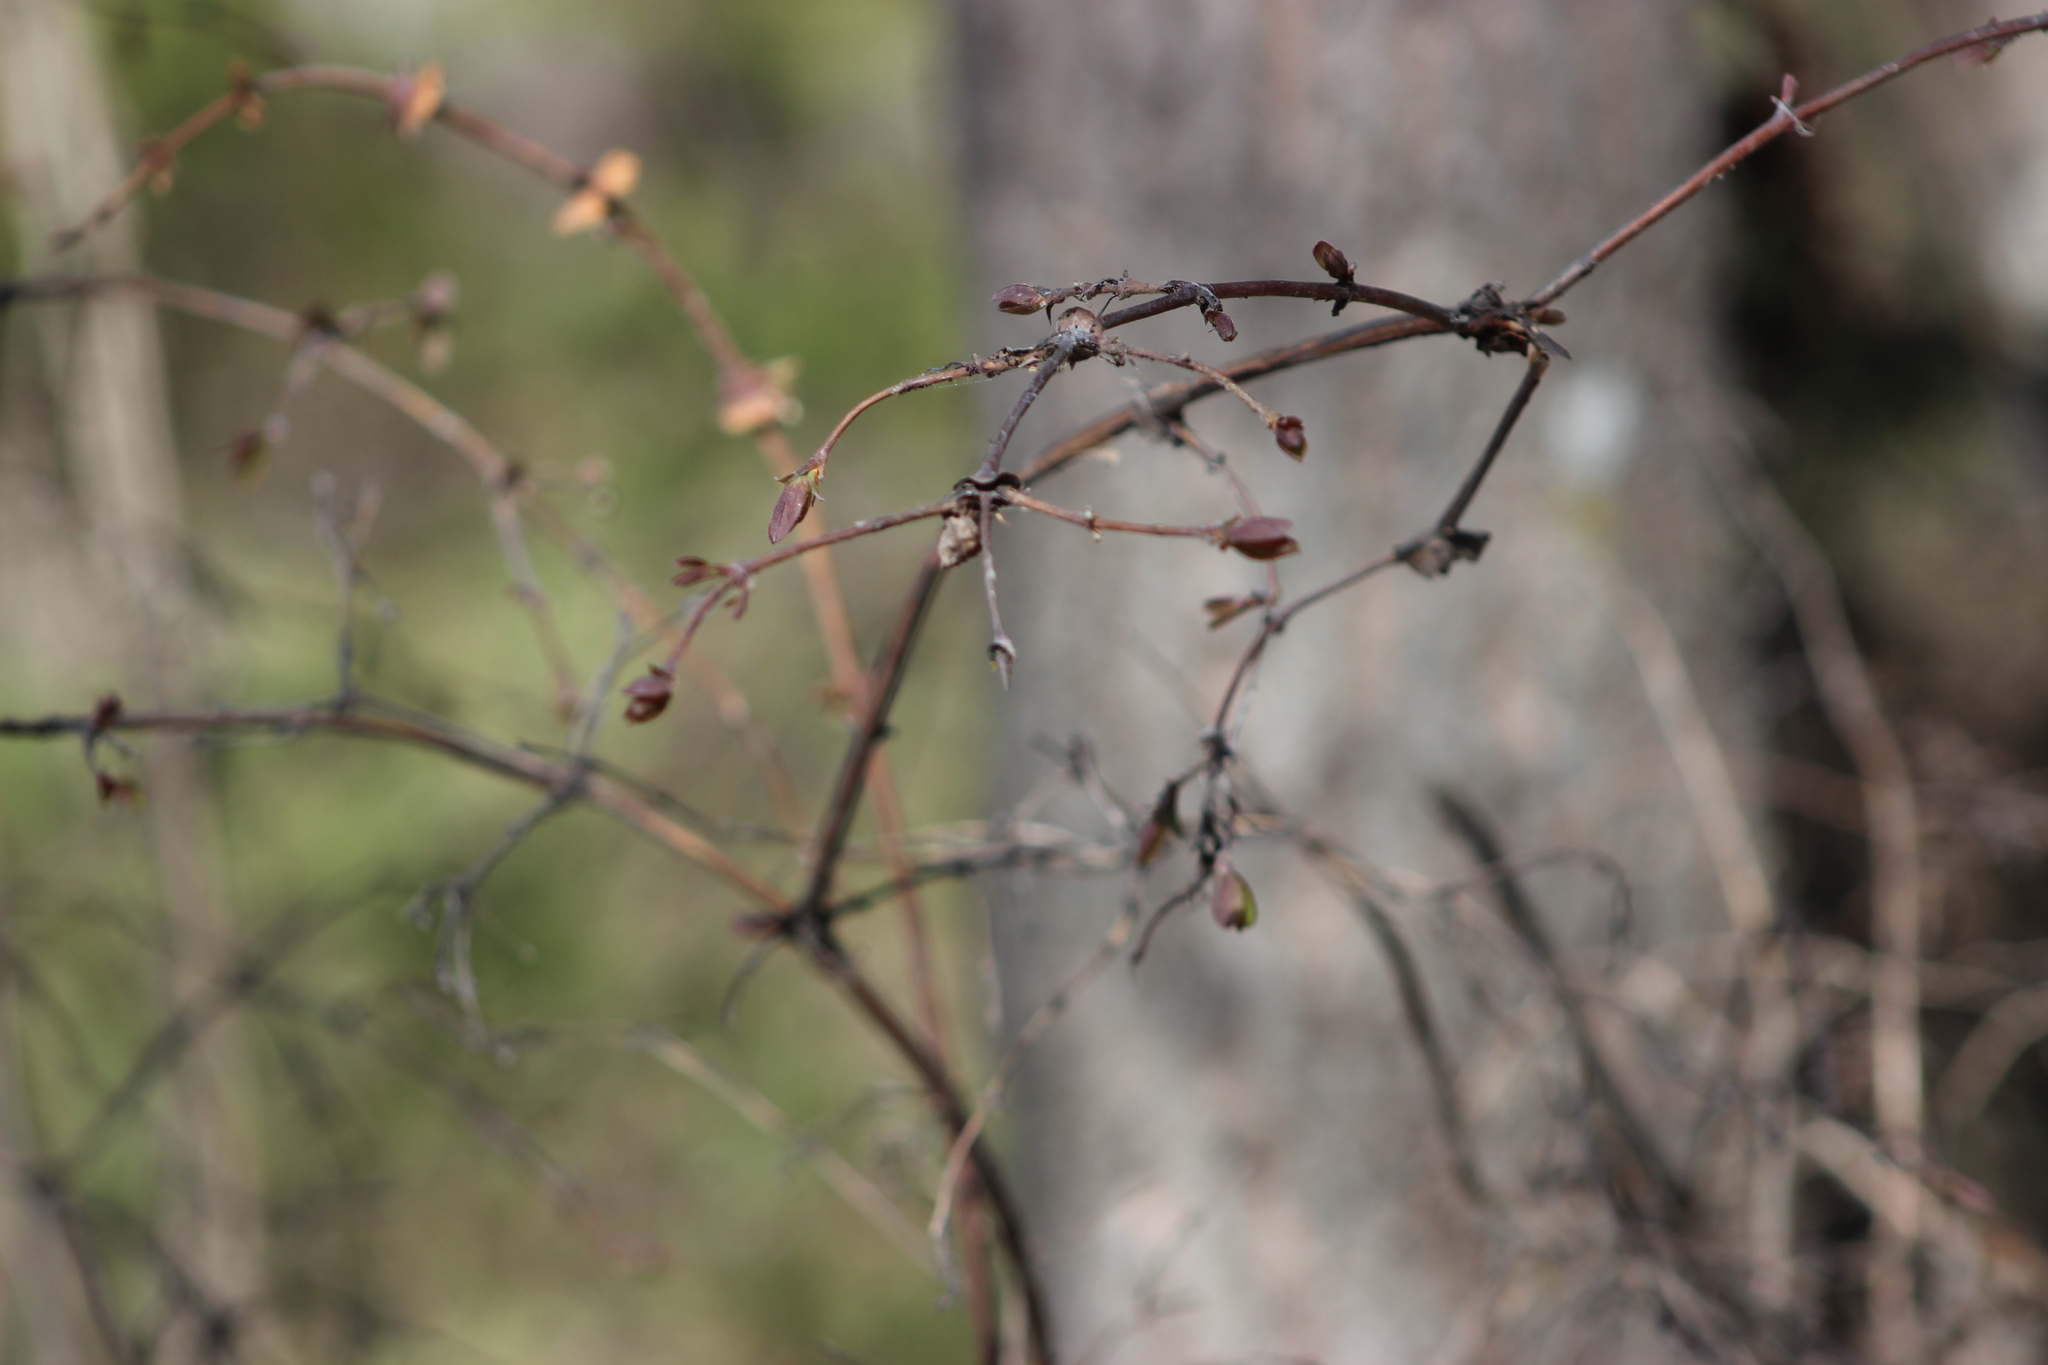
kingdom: Plantae
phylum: Tracheophyta
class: Magnoliopsida
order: Dipsacales
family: Caprifoliaceae
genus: Lonicera
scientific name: Lonicera caerulea
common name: Blue honeysuckle
